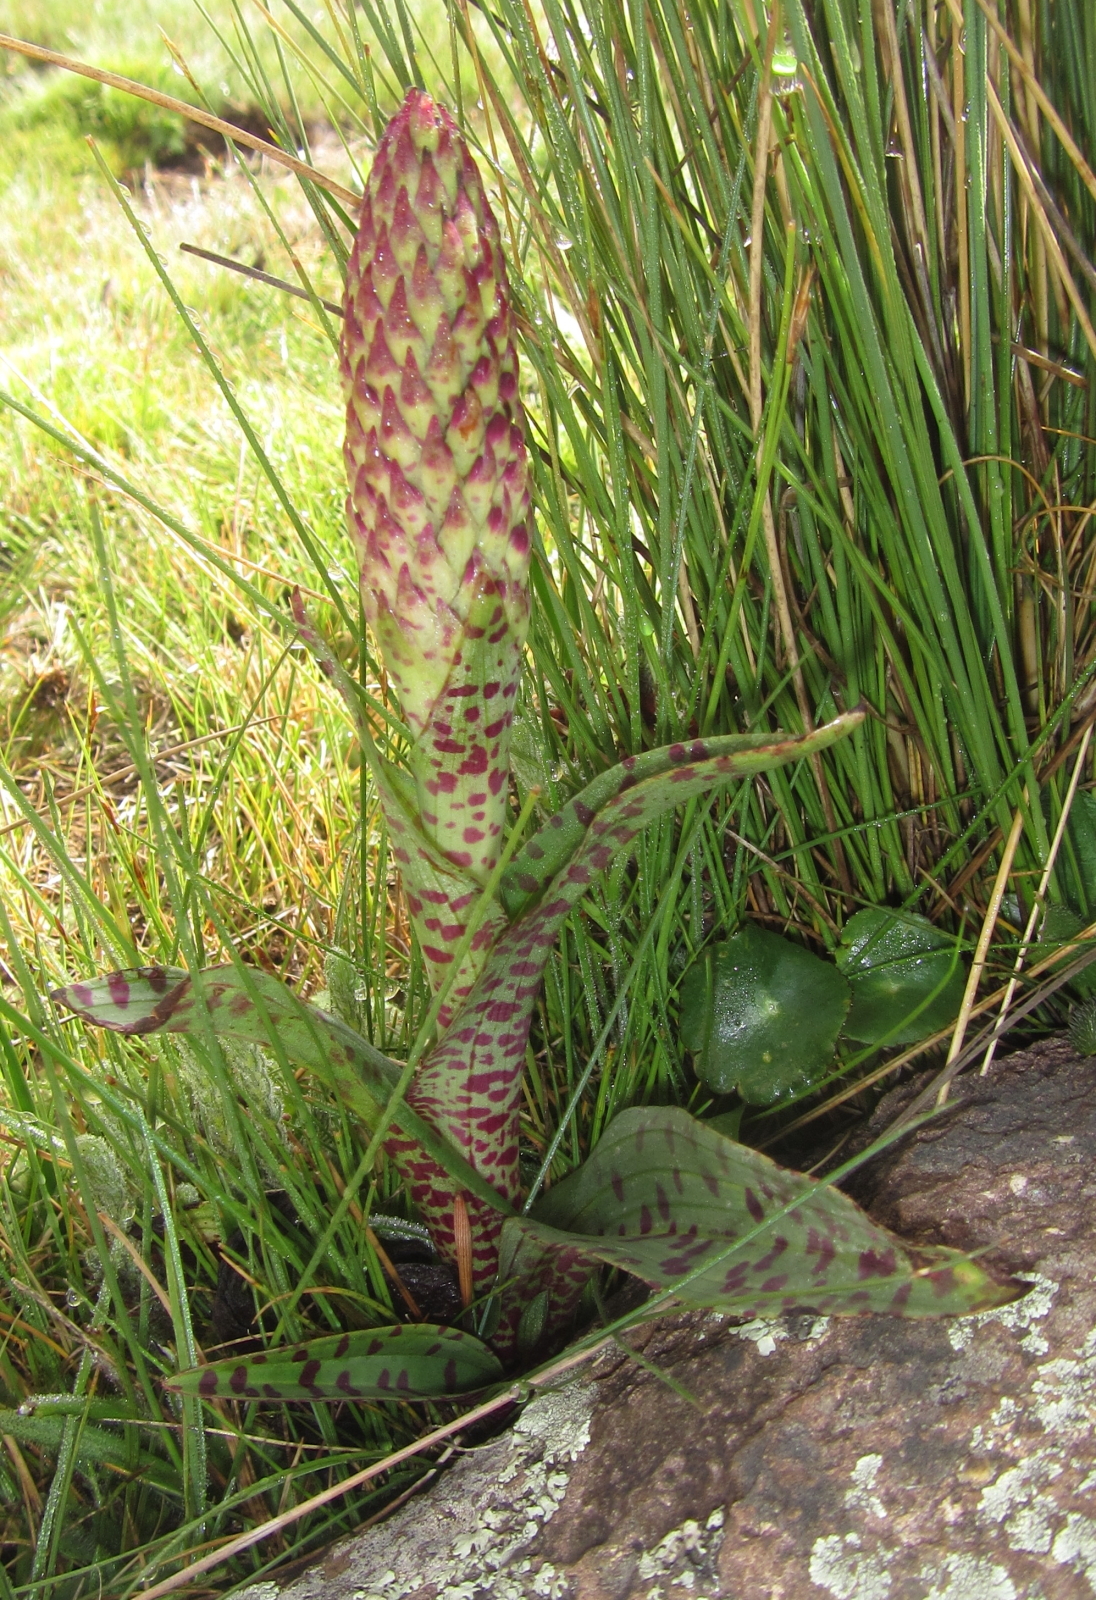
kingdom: Plantae
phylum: Tracheophyta
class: Liliopsida
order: Asparagales
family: Orchidaceae
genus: Disa
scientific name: Disa fragrans
